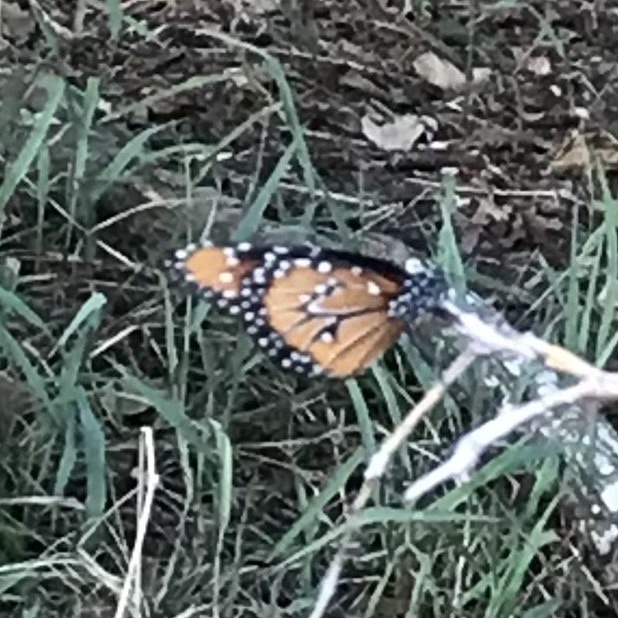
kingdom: Animalia
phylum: Arthropoda
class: Insecta
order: Lepidoptera
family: Nymphalidae
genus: Danaus
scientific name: Danaus gilippus
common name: Queen
